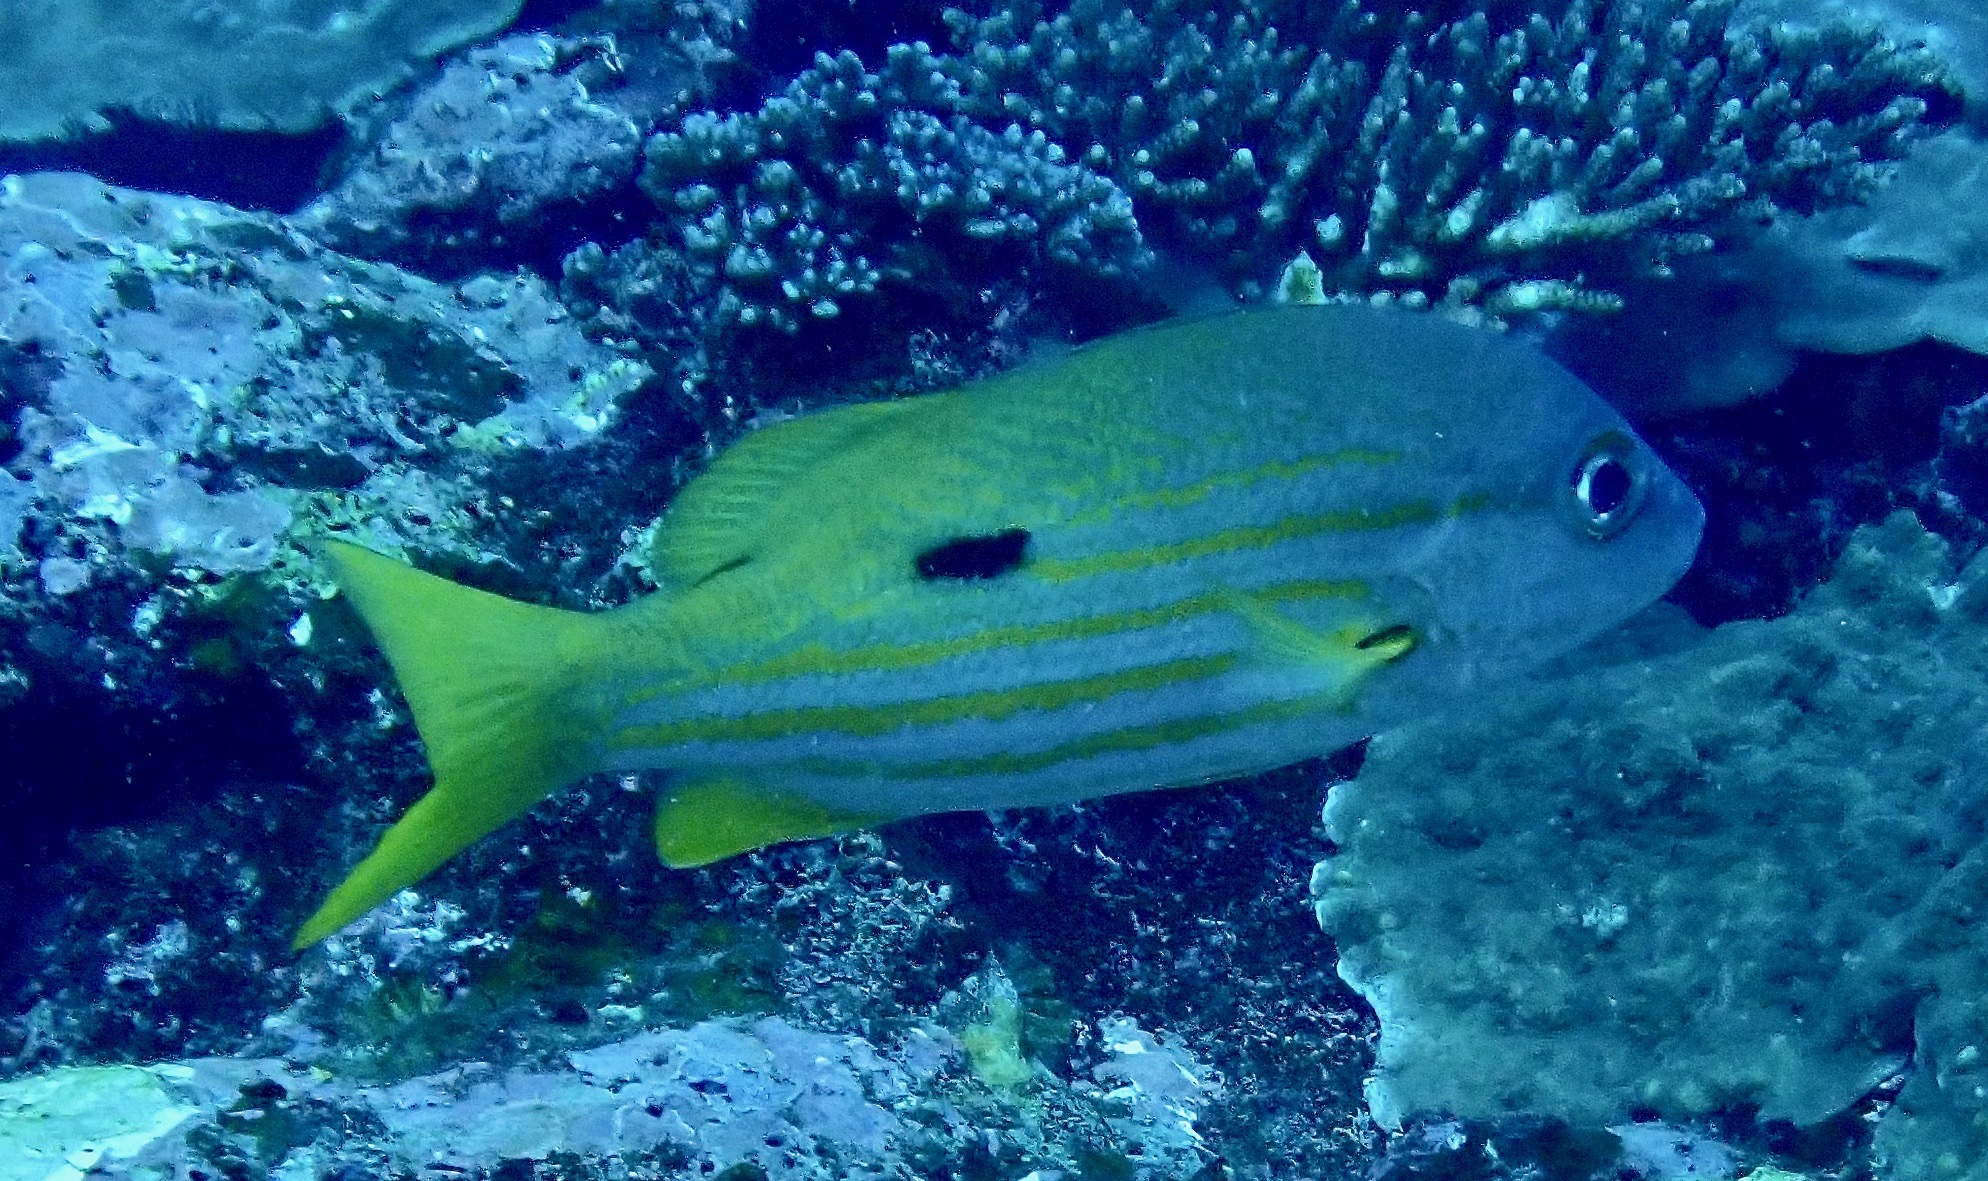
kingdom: Animalia
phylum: Chordata
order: Perciformes
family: Lutjanidae
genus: Lutjanus
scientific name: Lutjanus fulviflamma
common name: Blackspot snapper
